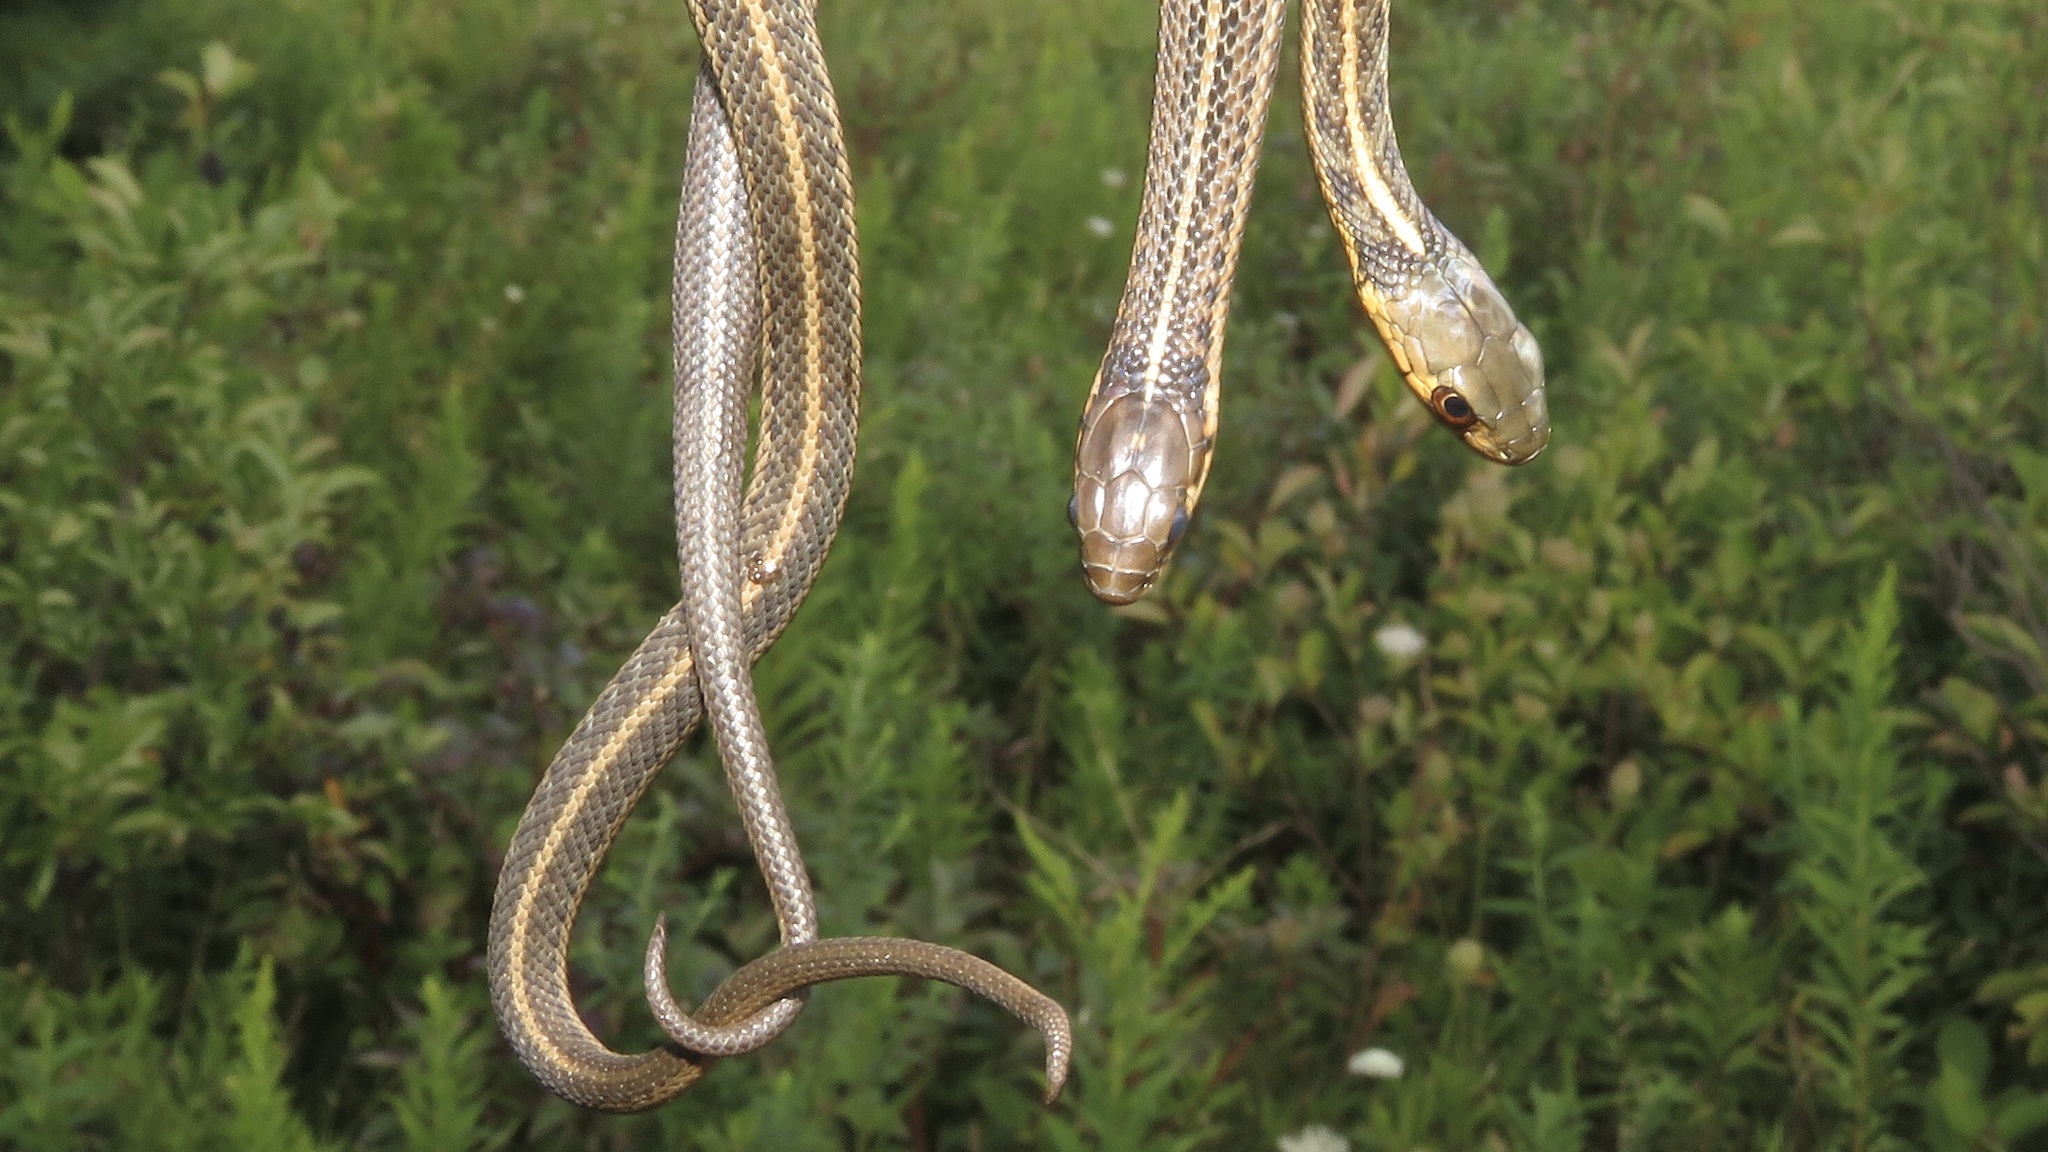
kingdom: Animalia
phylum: Chordata
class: Squamata
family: Colubridae
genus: Thamnophis
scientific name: Thamnophis butleri
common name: Butler's garter snake
